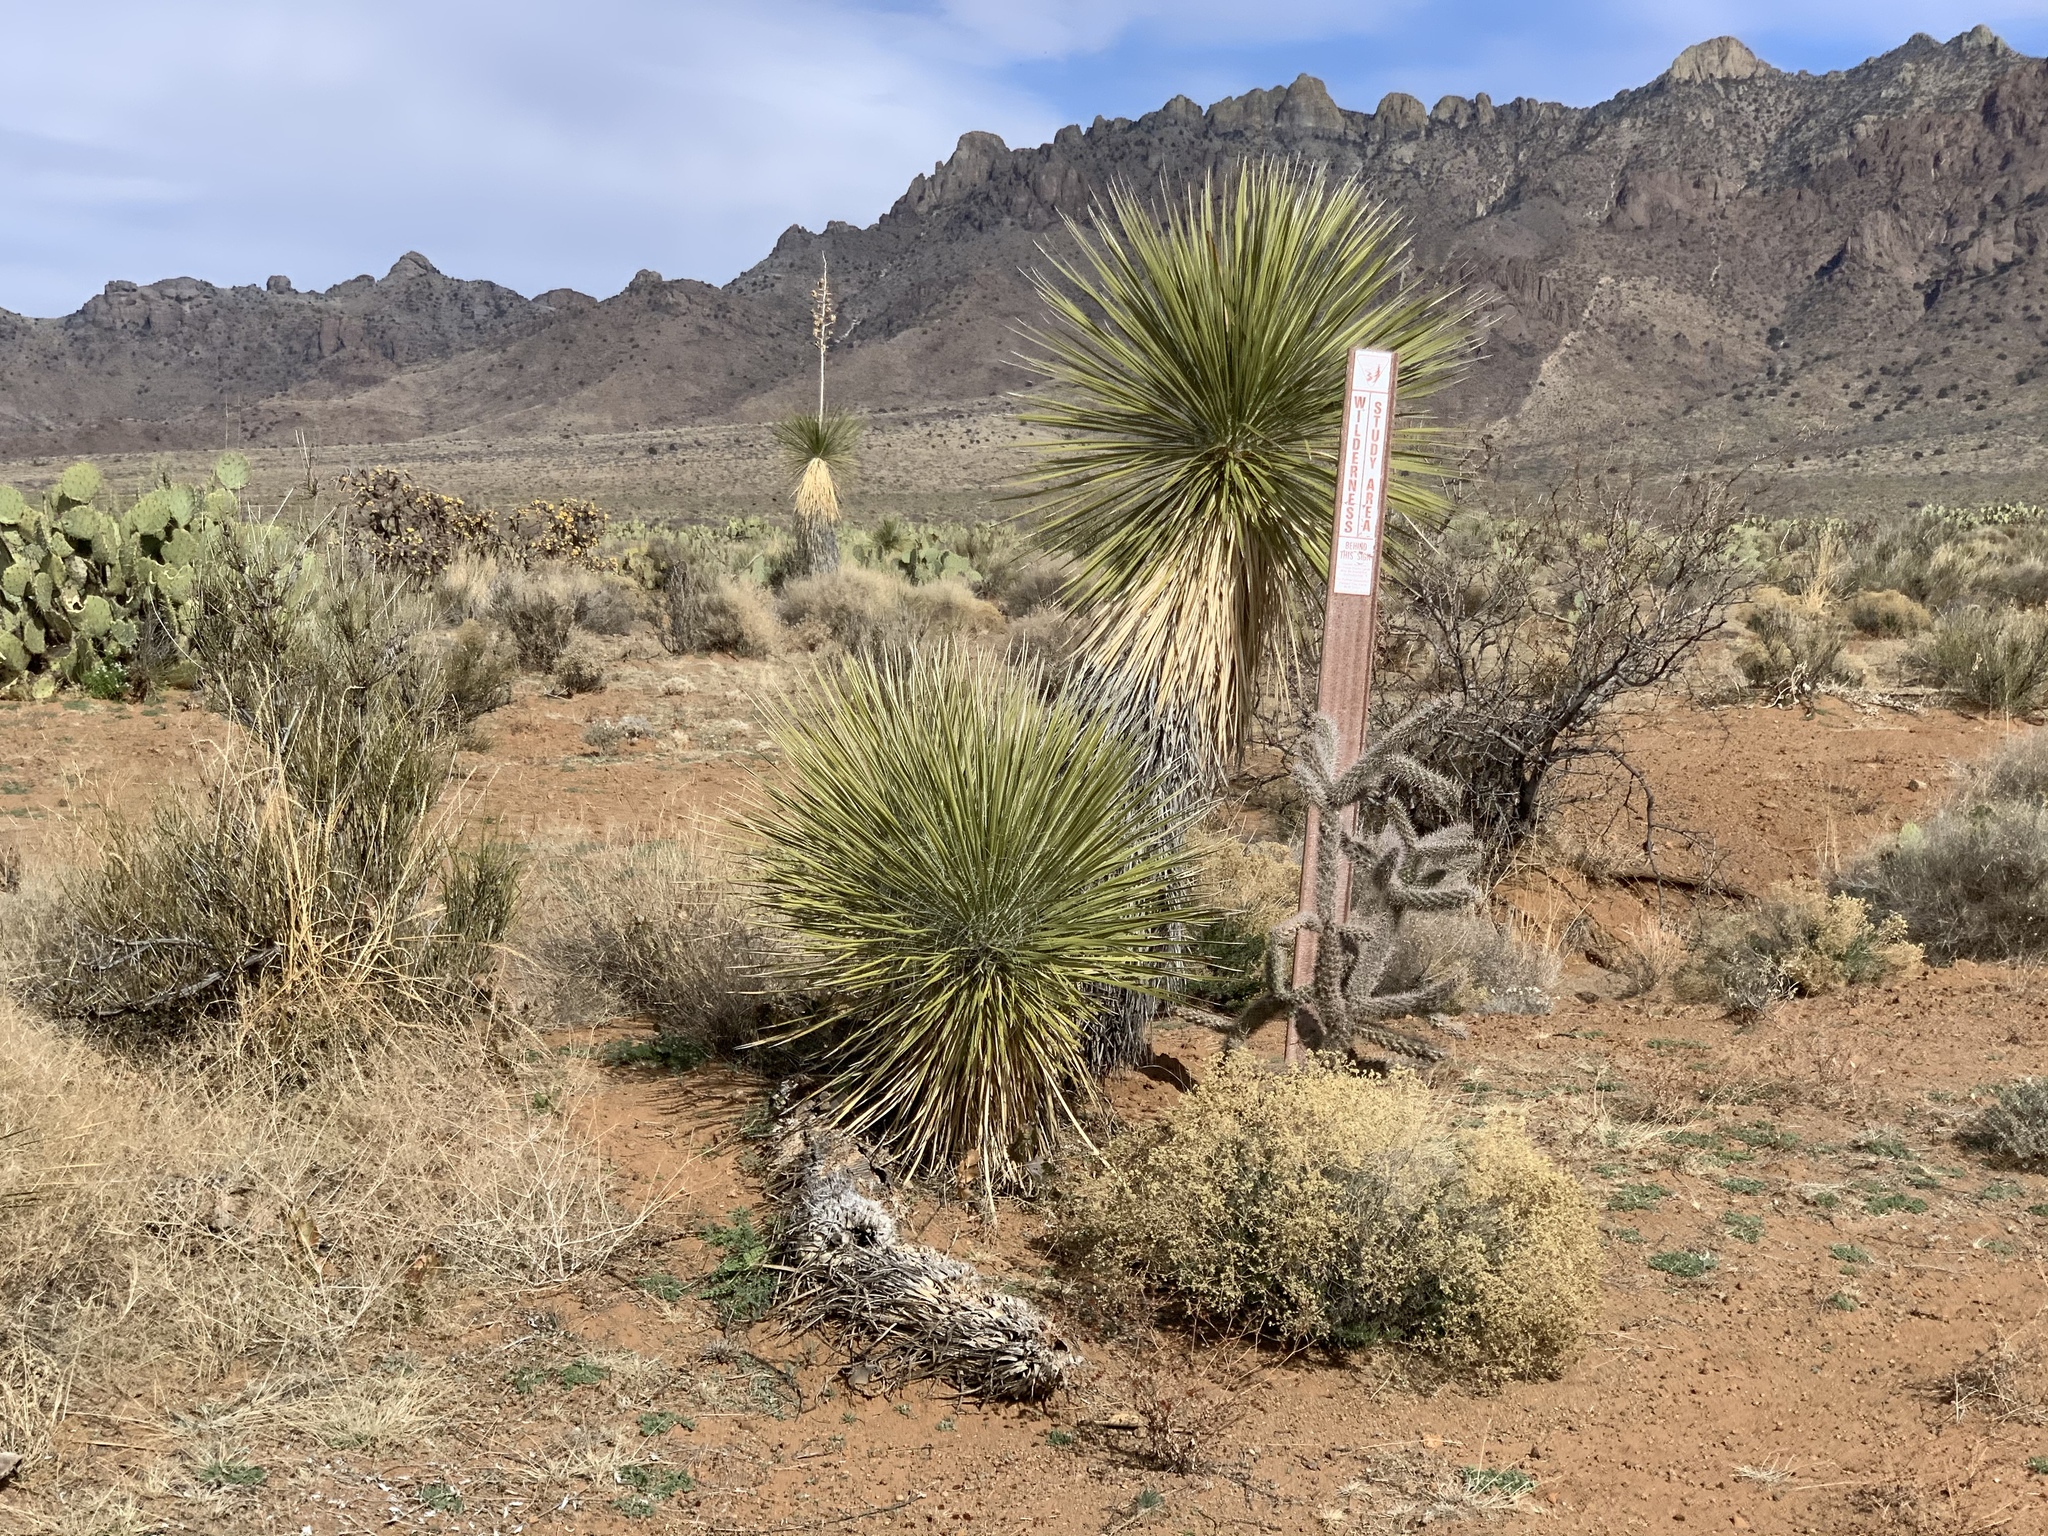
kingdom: Plantae
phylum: Tracheophyta
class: Liliopsida
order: Asparagales
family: Asparagaceae
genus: Yucca
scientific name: Yucca elata
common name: Palmella
